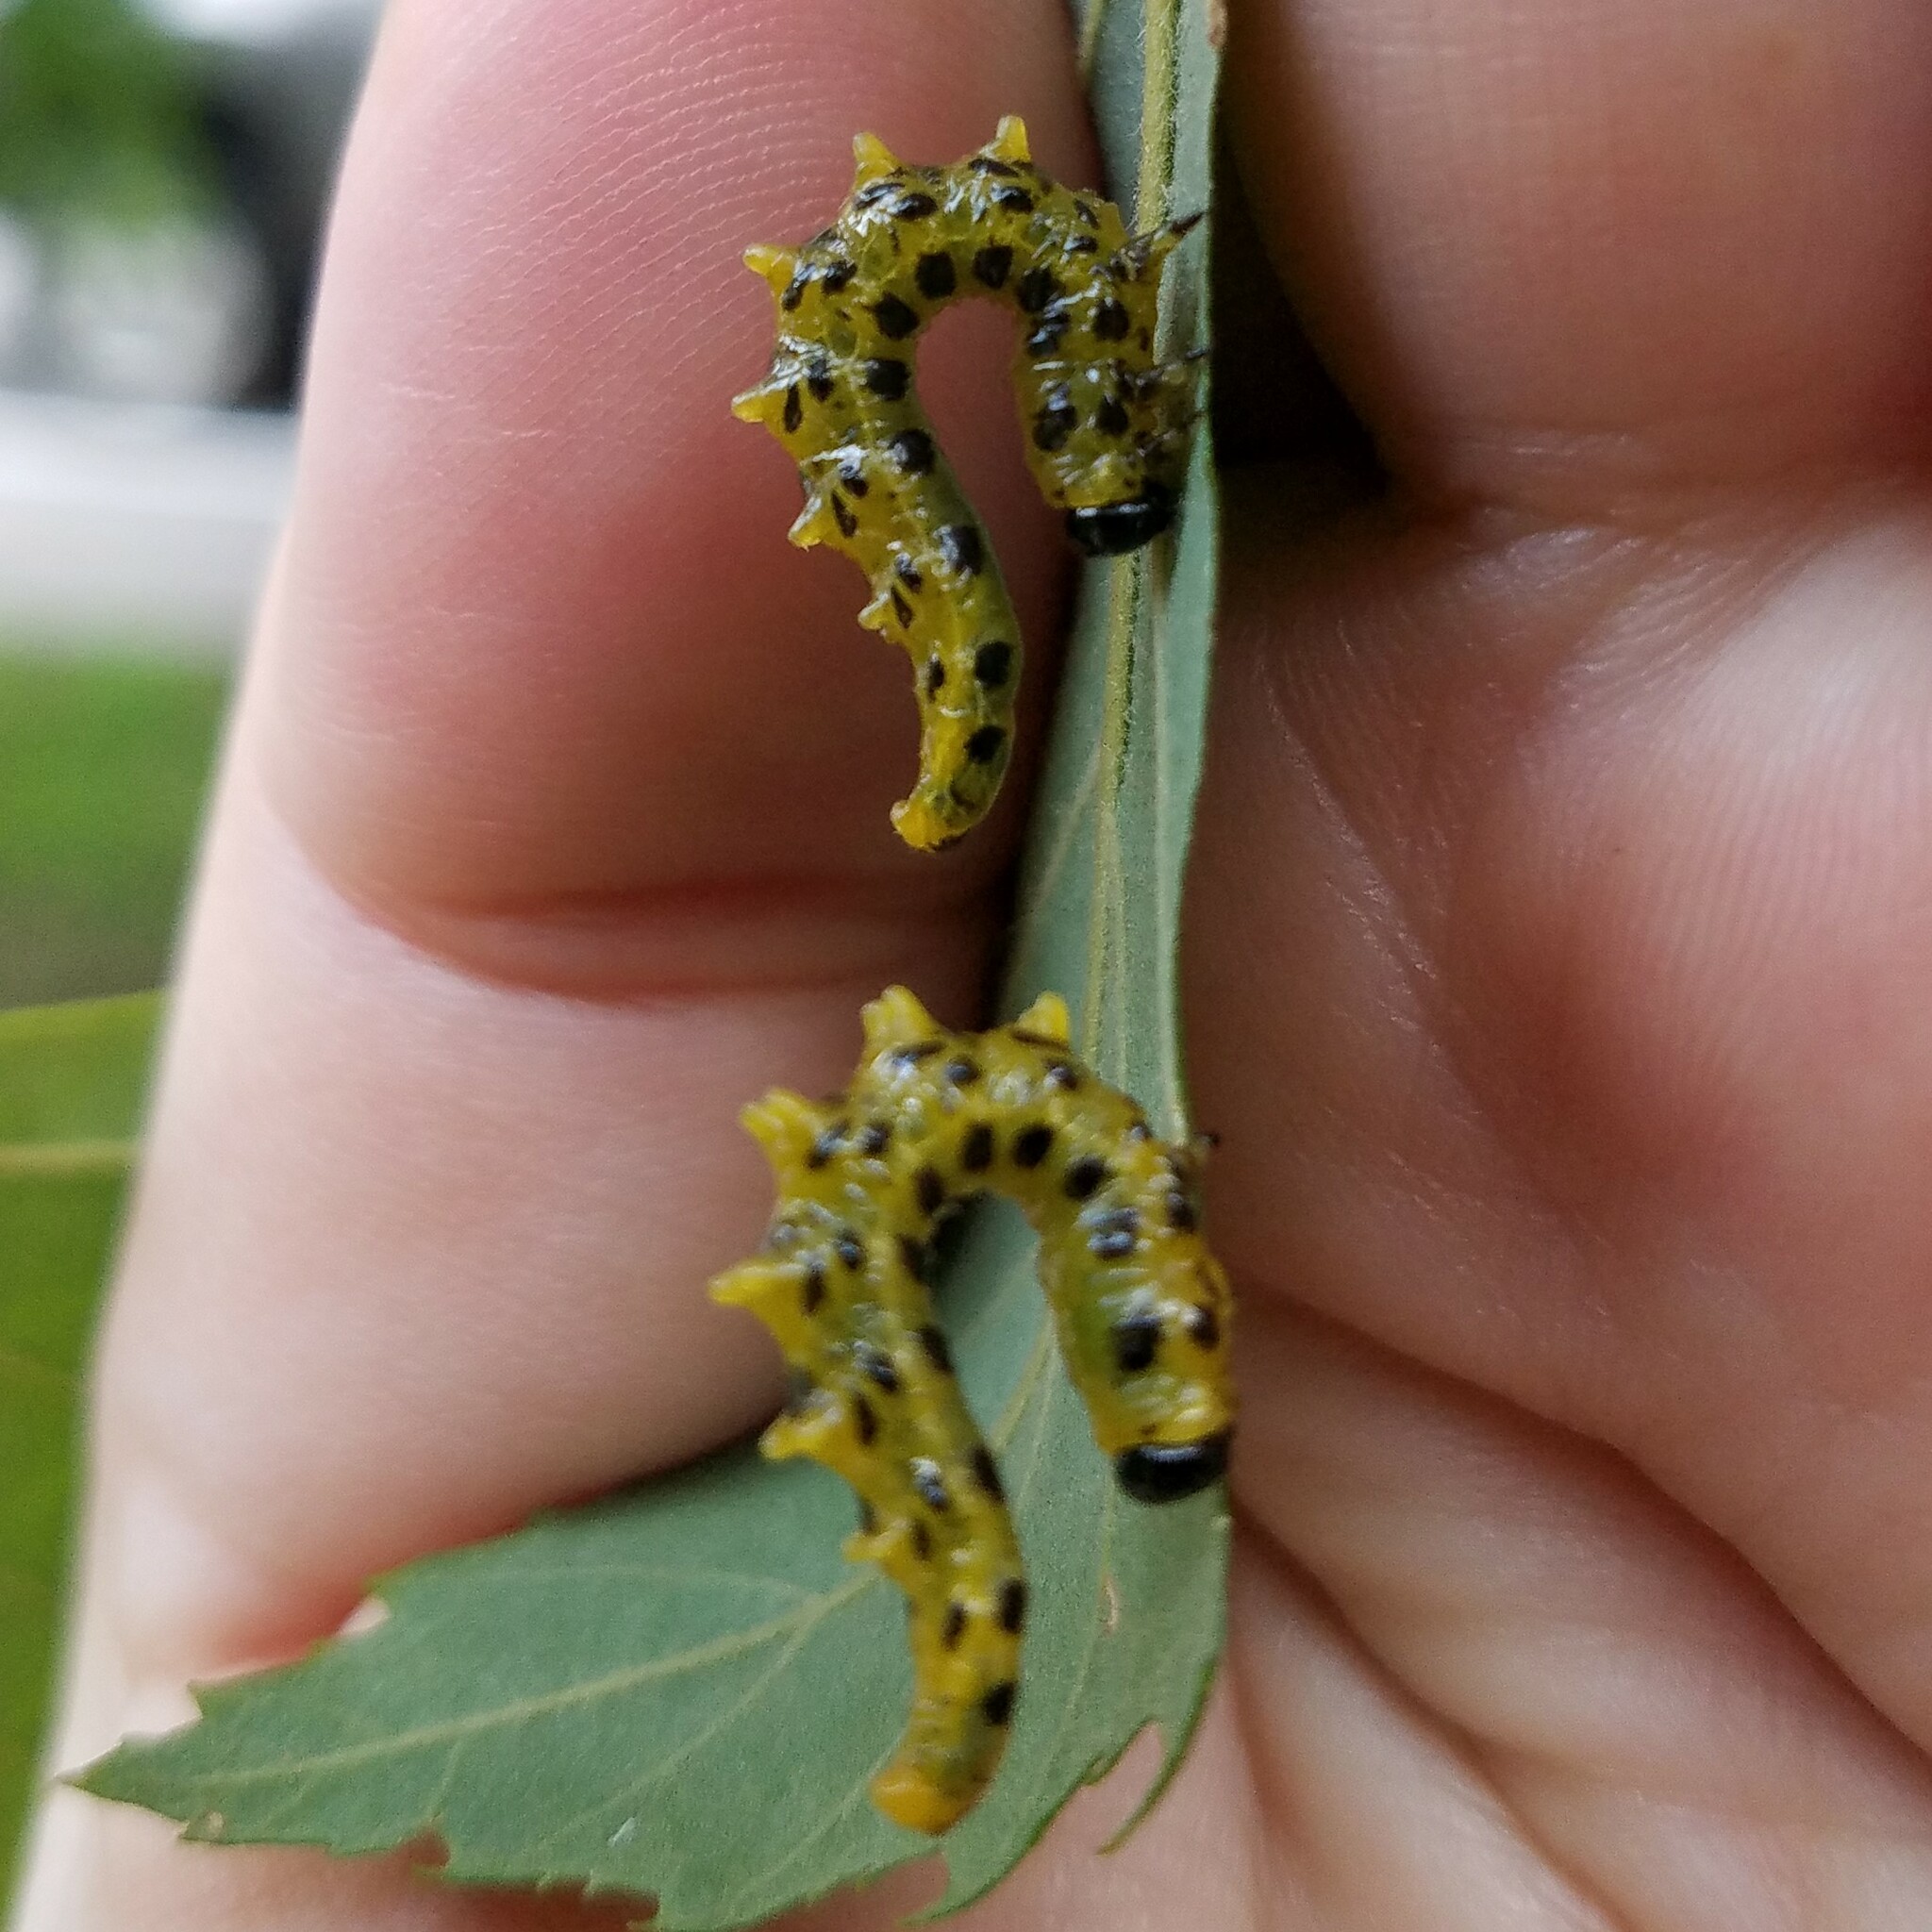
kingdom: Animalia
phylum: Arthropoda
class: Insecta
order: Hymenoptera
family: Tenthredinidae
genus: Nematus
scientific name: Nematus
